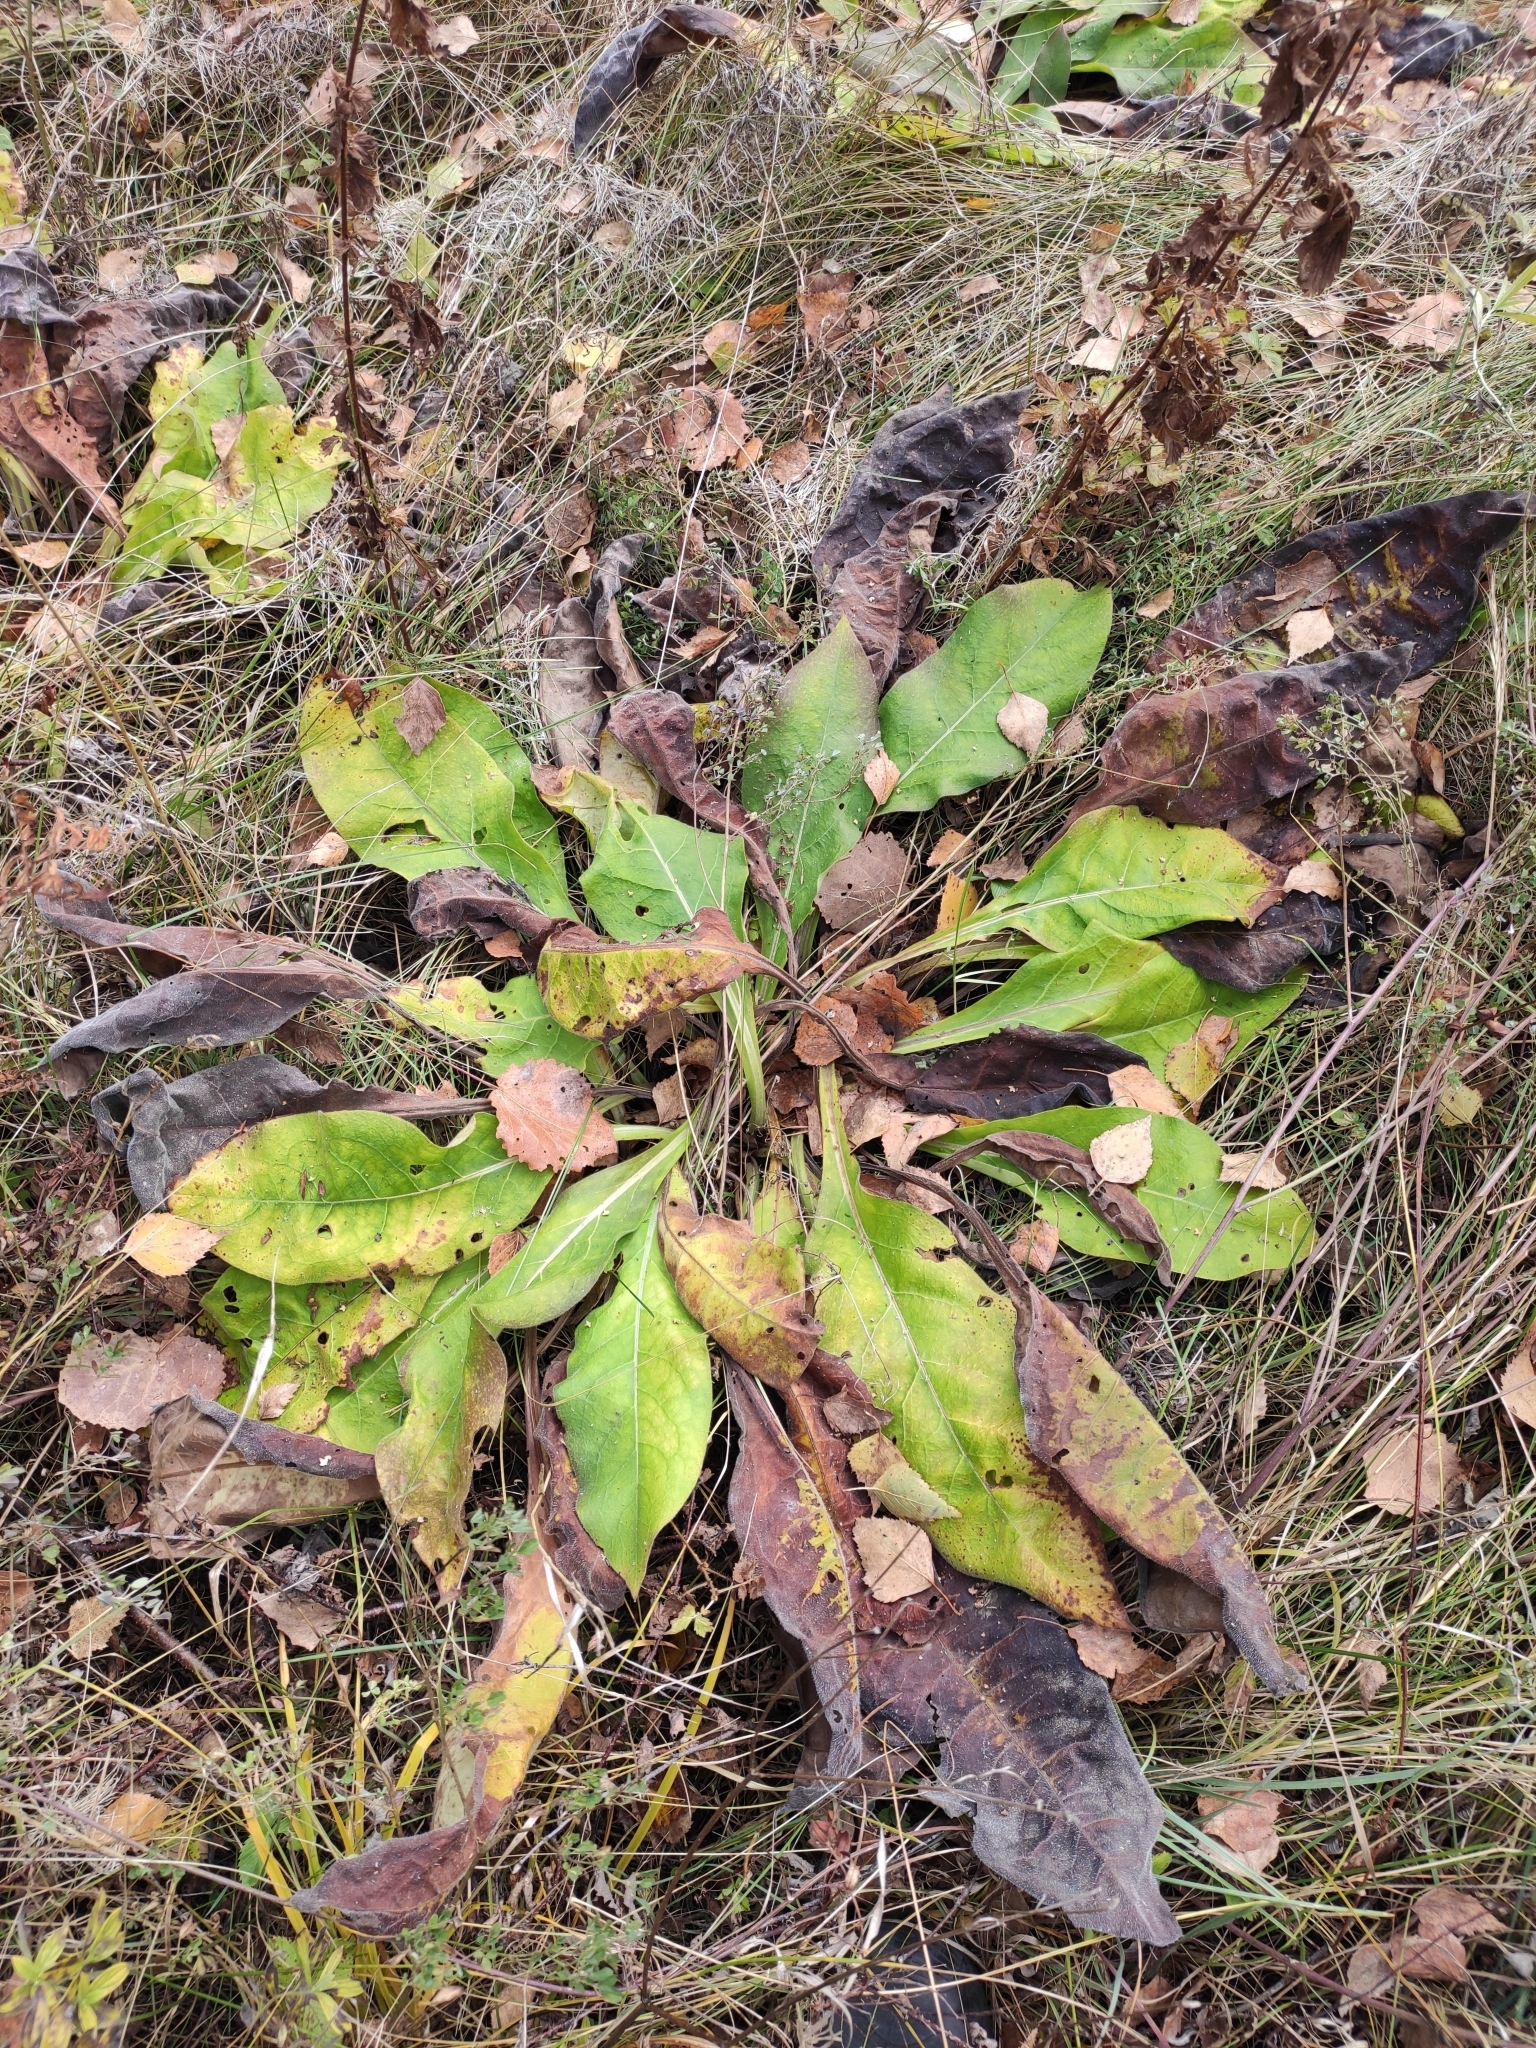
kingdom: Plantae
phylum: Tracheophyta
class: Magnoliopsida
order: Boraginales
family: Boraginaceae
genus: Pulmonaria
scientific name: Pulmonaria mollis
